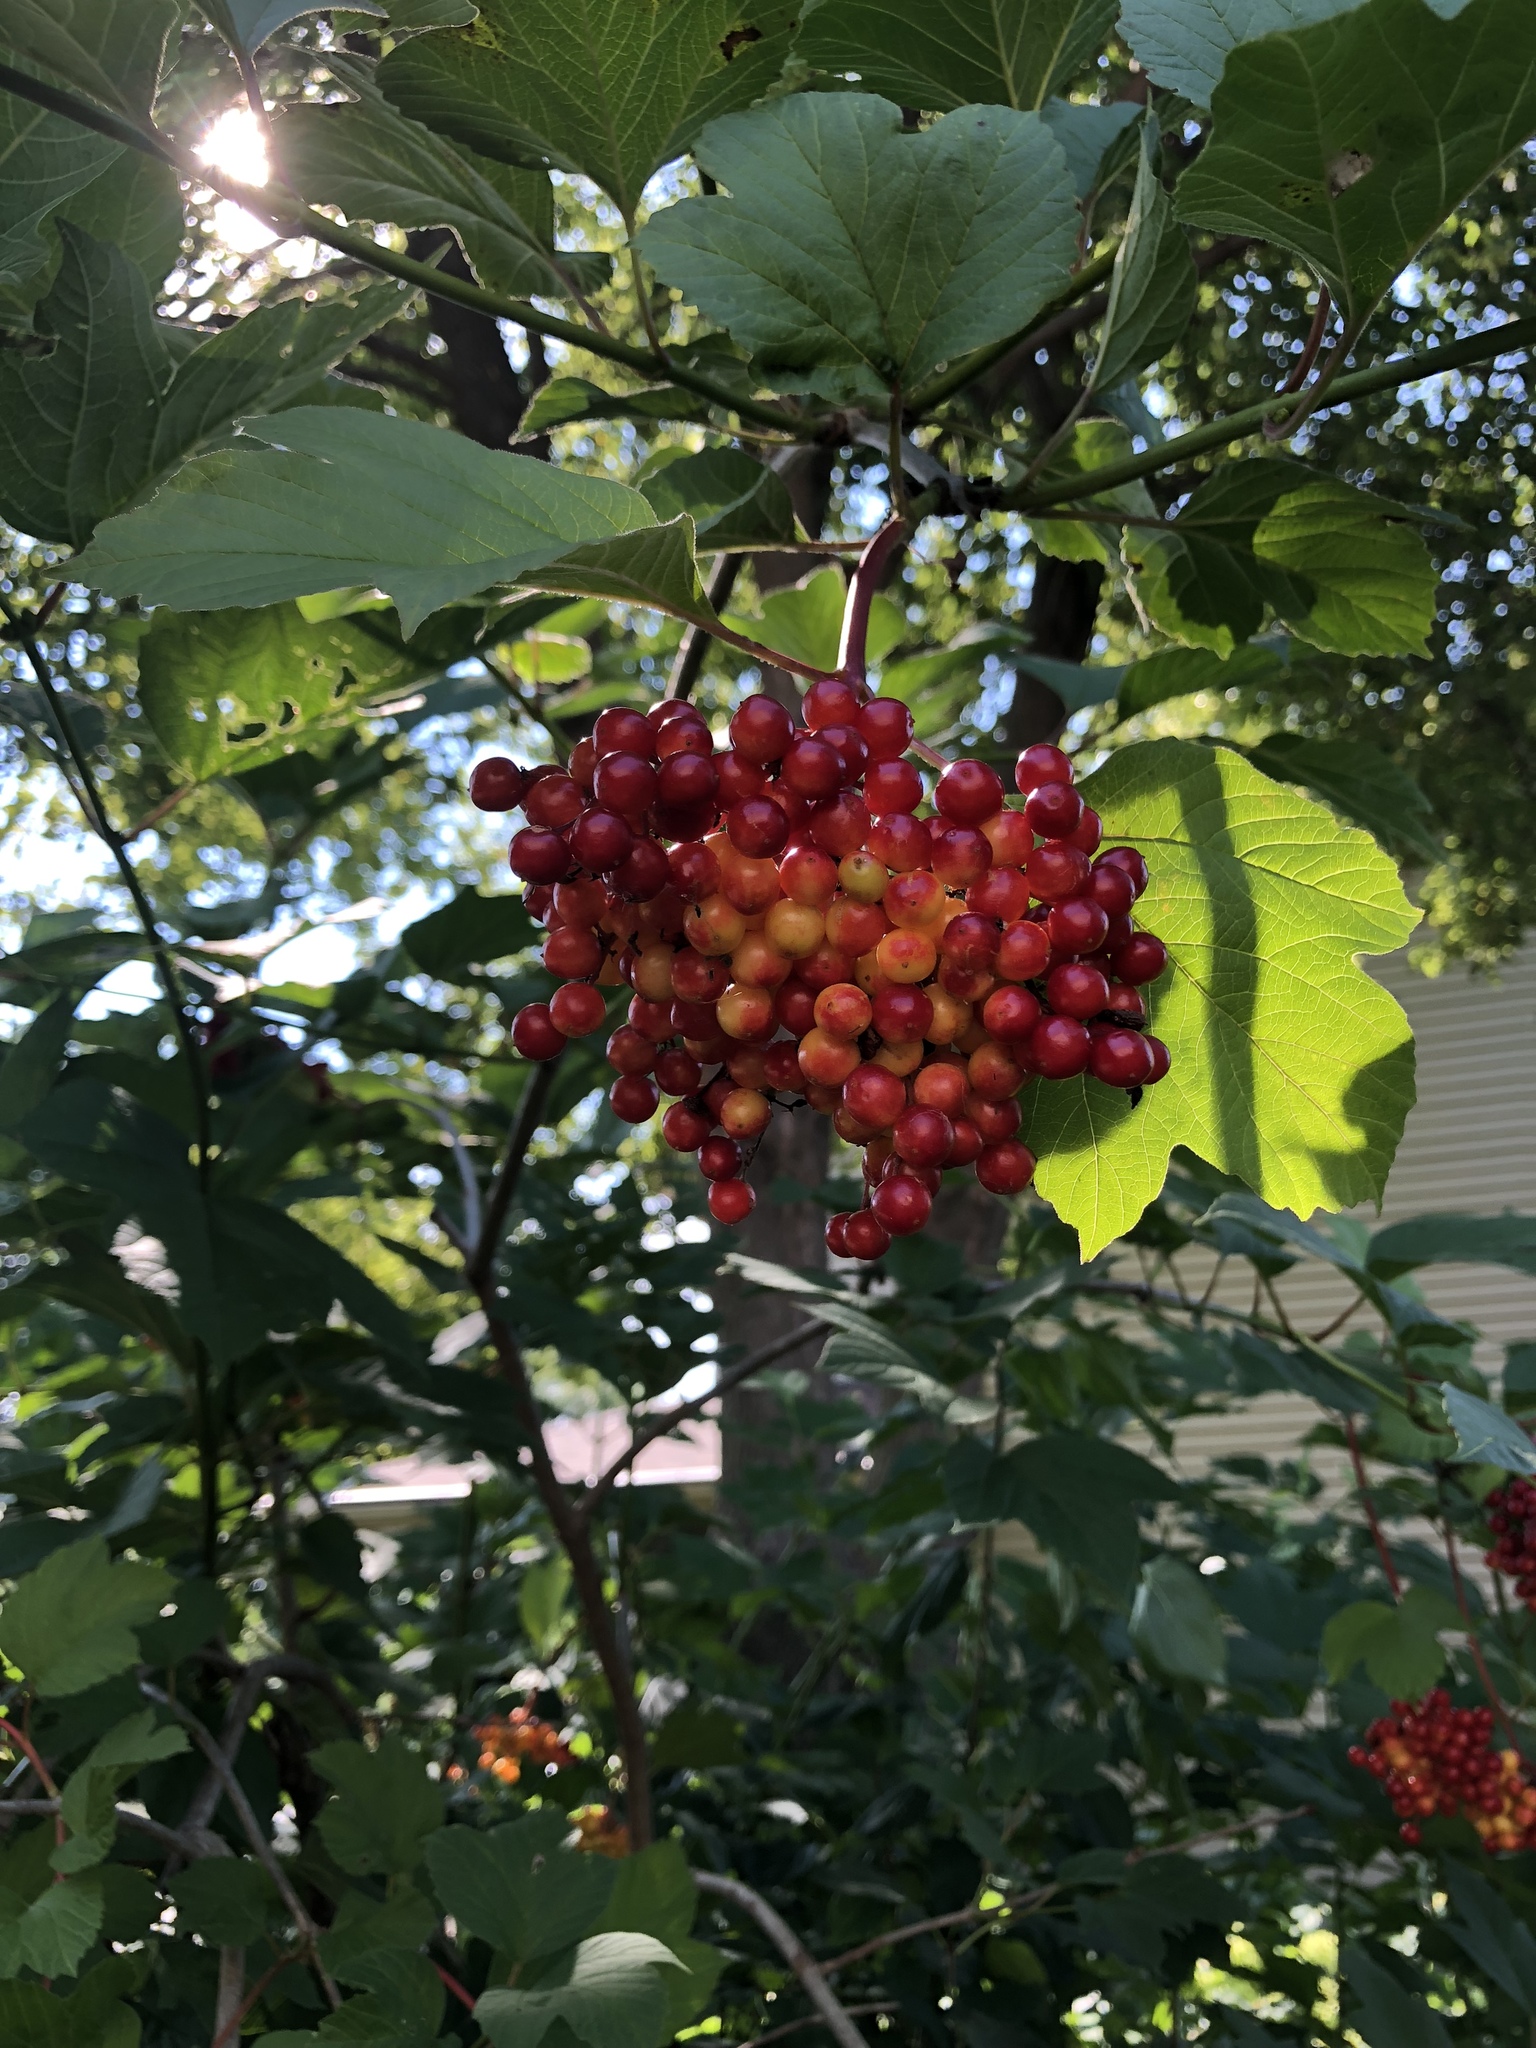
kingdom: Plantae
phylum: Tracheophyta
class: Magnoliopsida
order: Dipsacales
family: Viburnaceae
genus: Viburnum
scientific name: Viburnum opulus
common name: Guelder-rose
